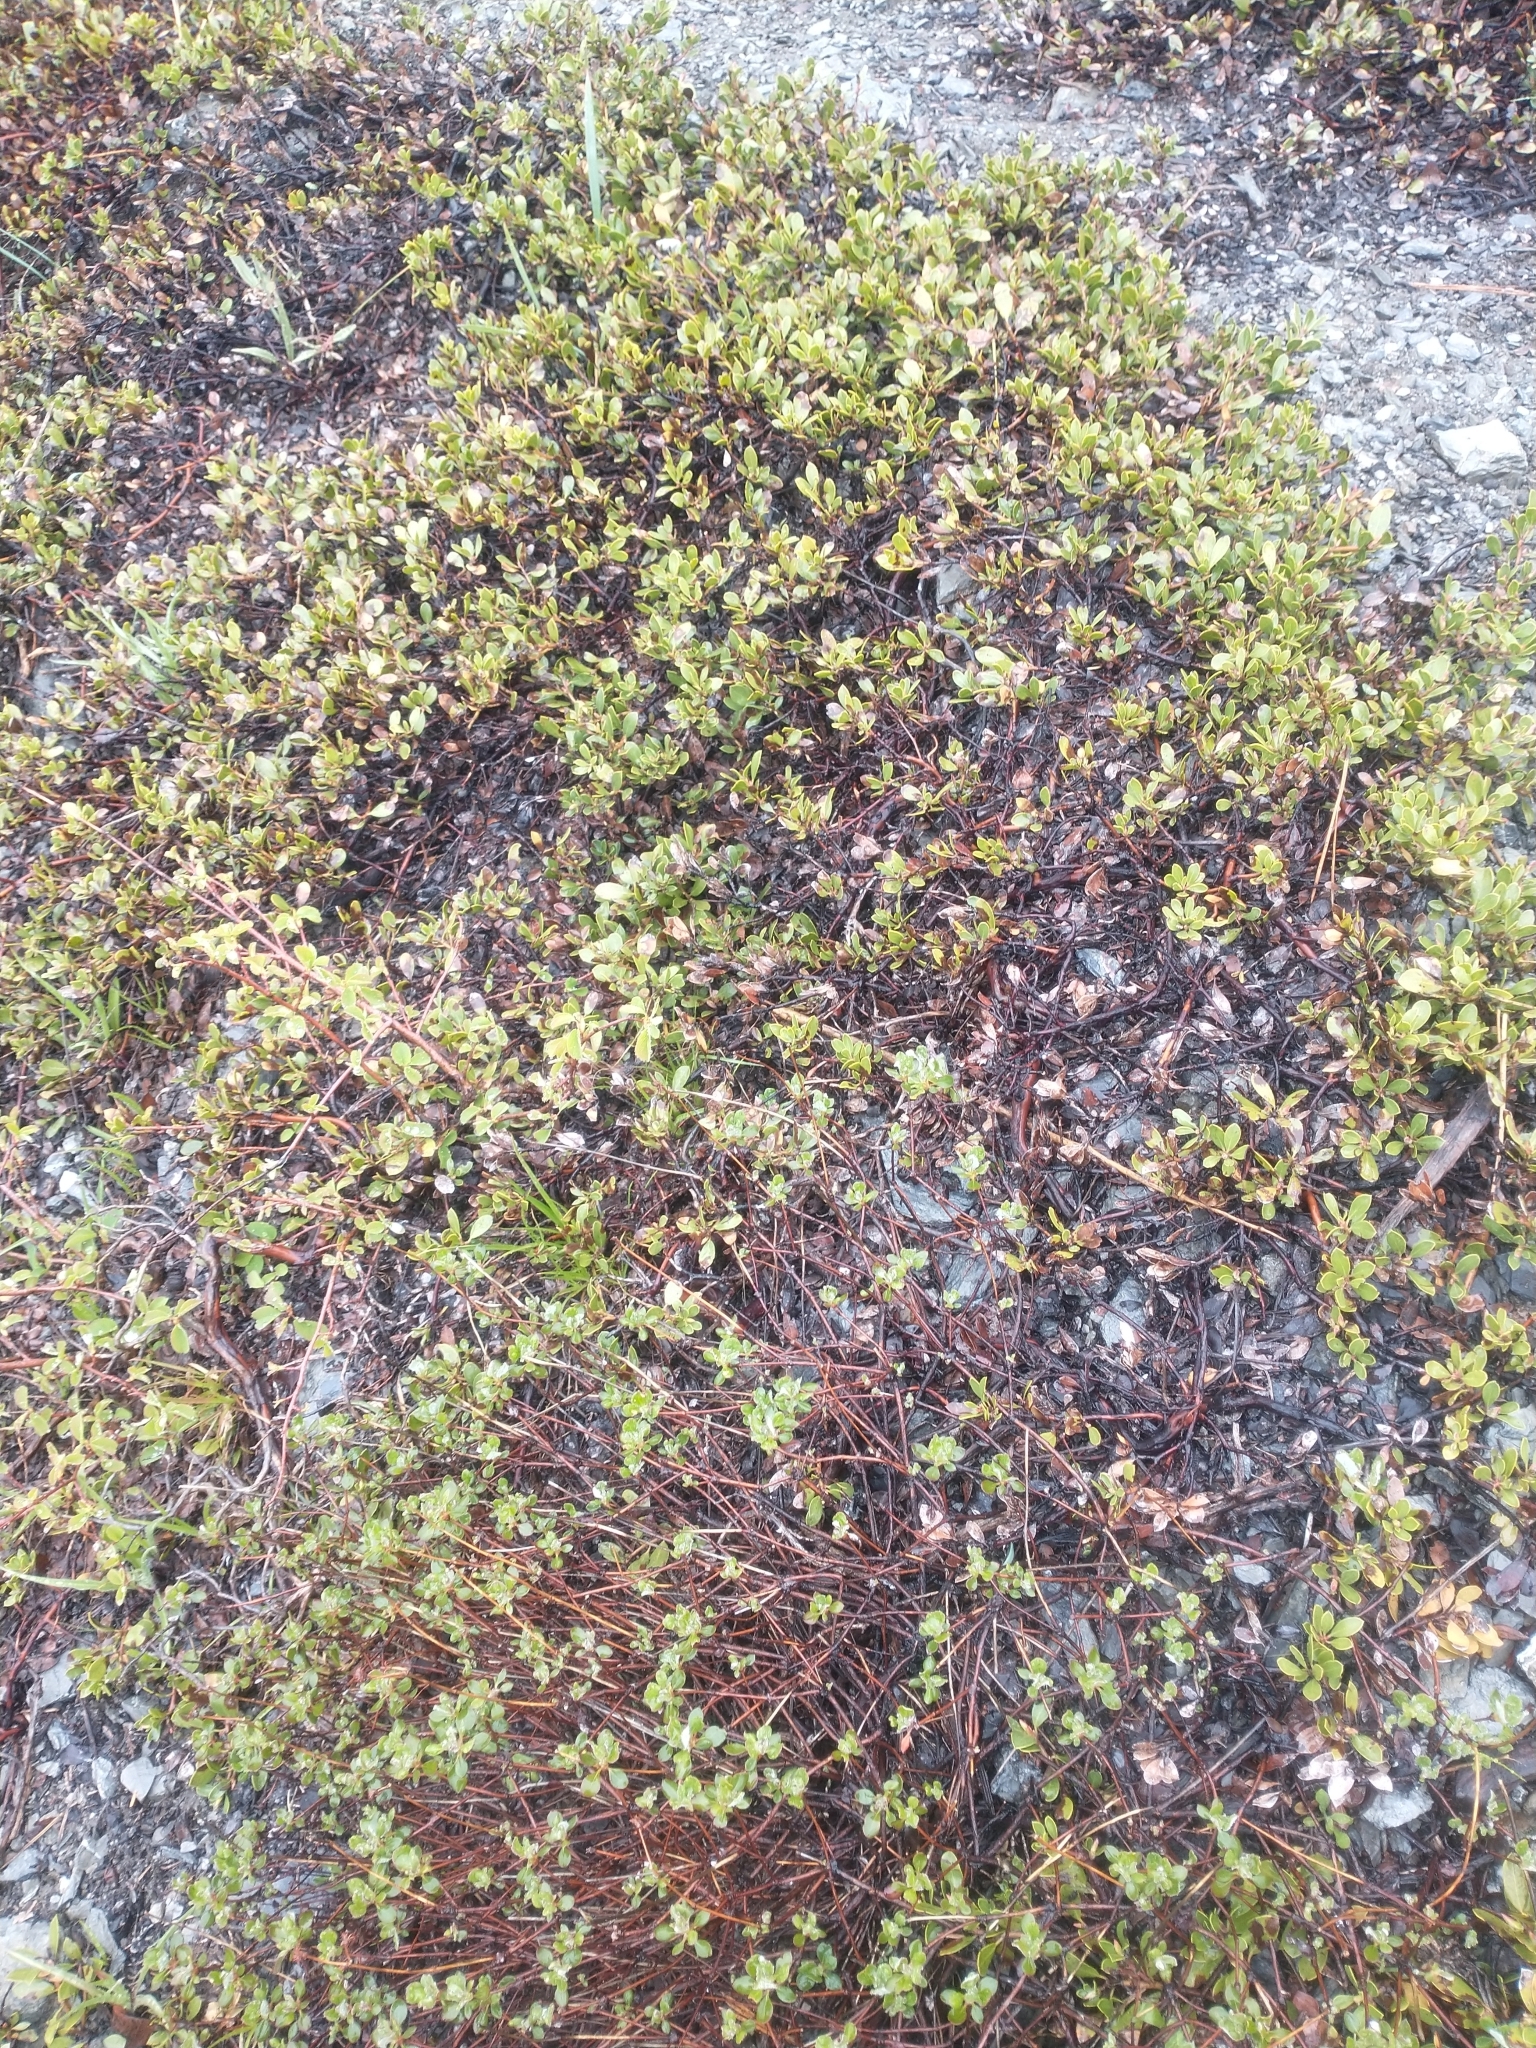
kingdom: Plantae
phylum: Tracheophyta
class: Magnoliopsida
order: Ericales
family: Ericaceae
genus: Arctostaphylos
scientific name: Arctostaphylos nevadensis
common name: Pinemat manzanita
